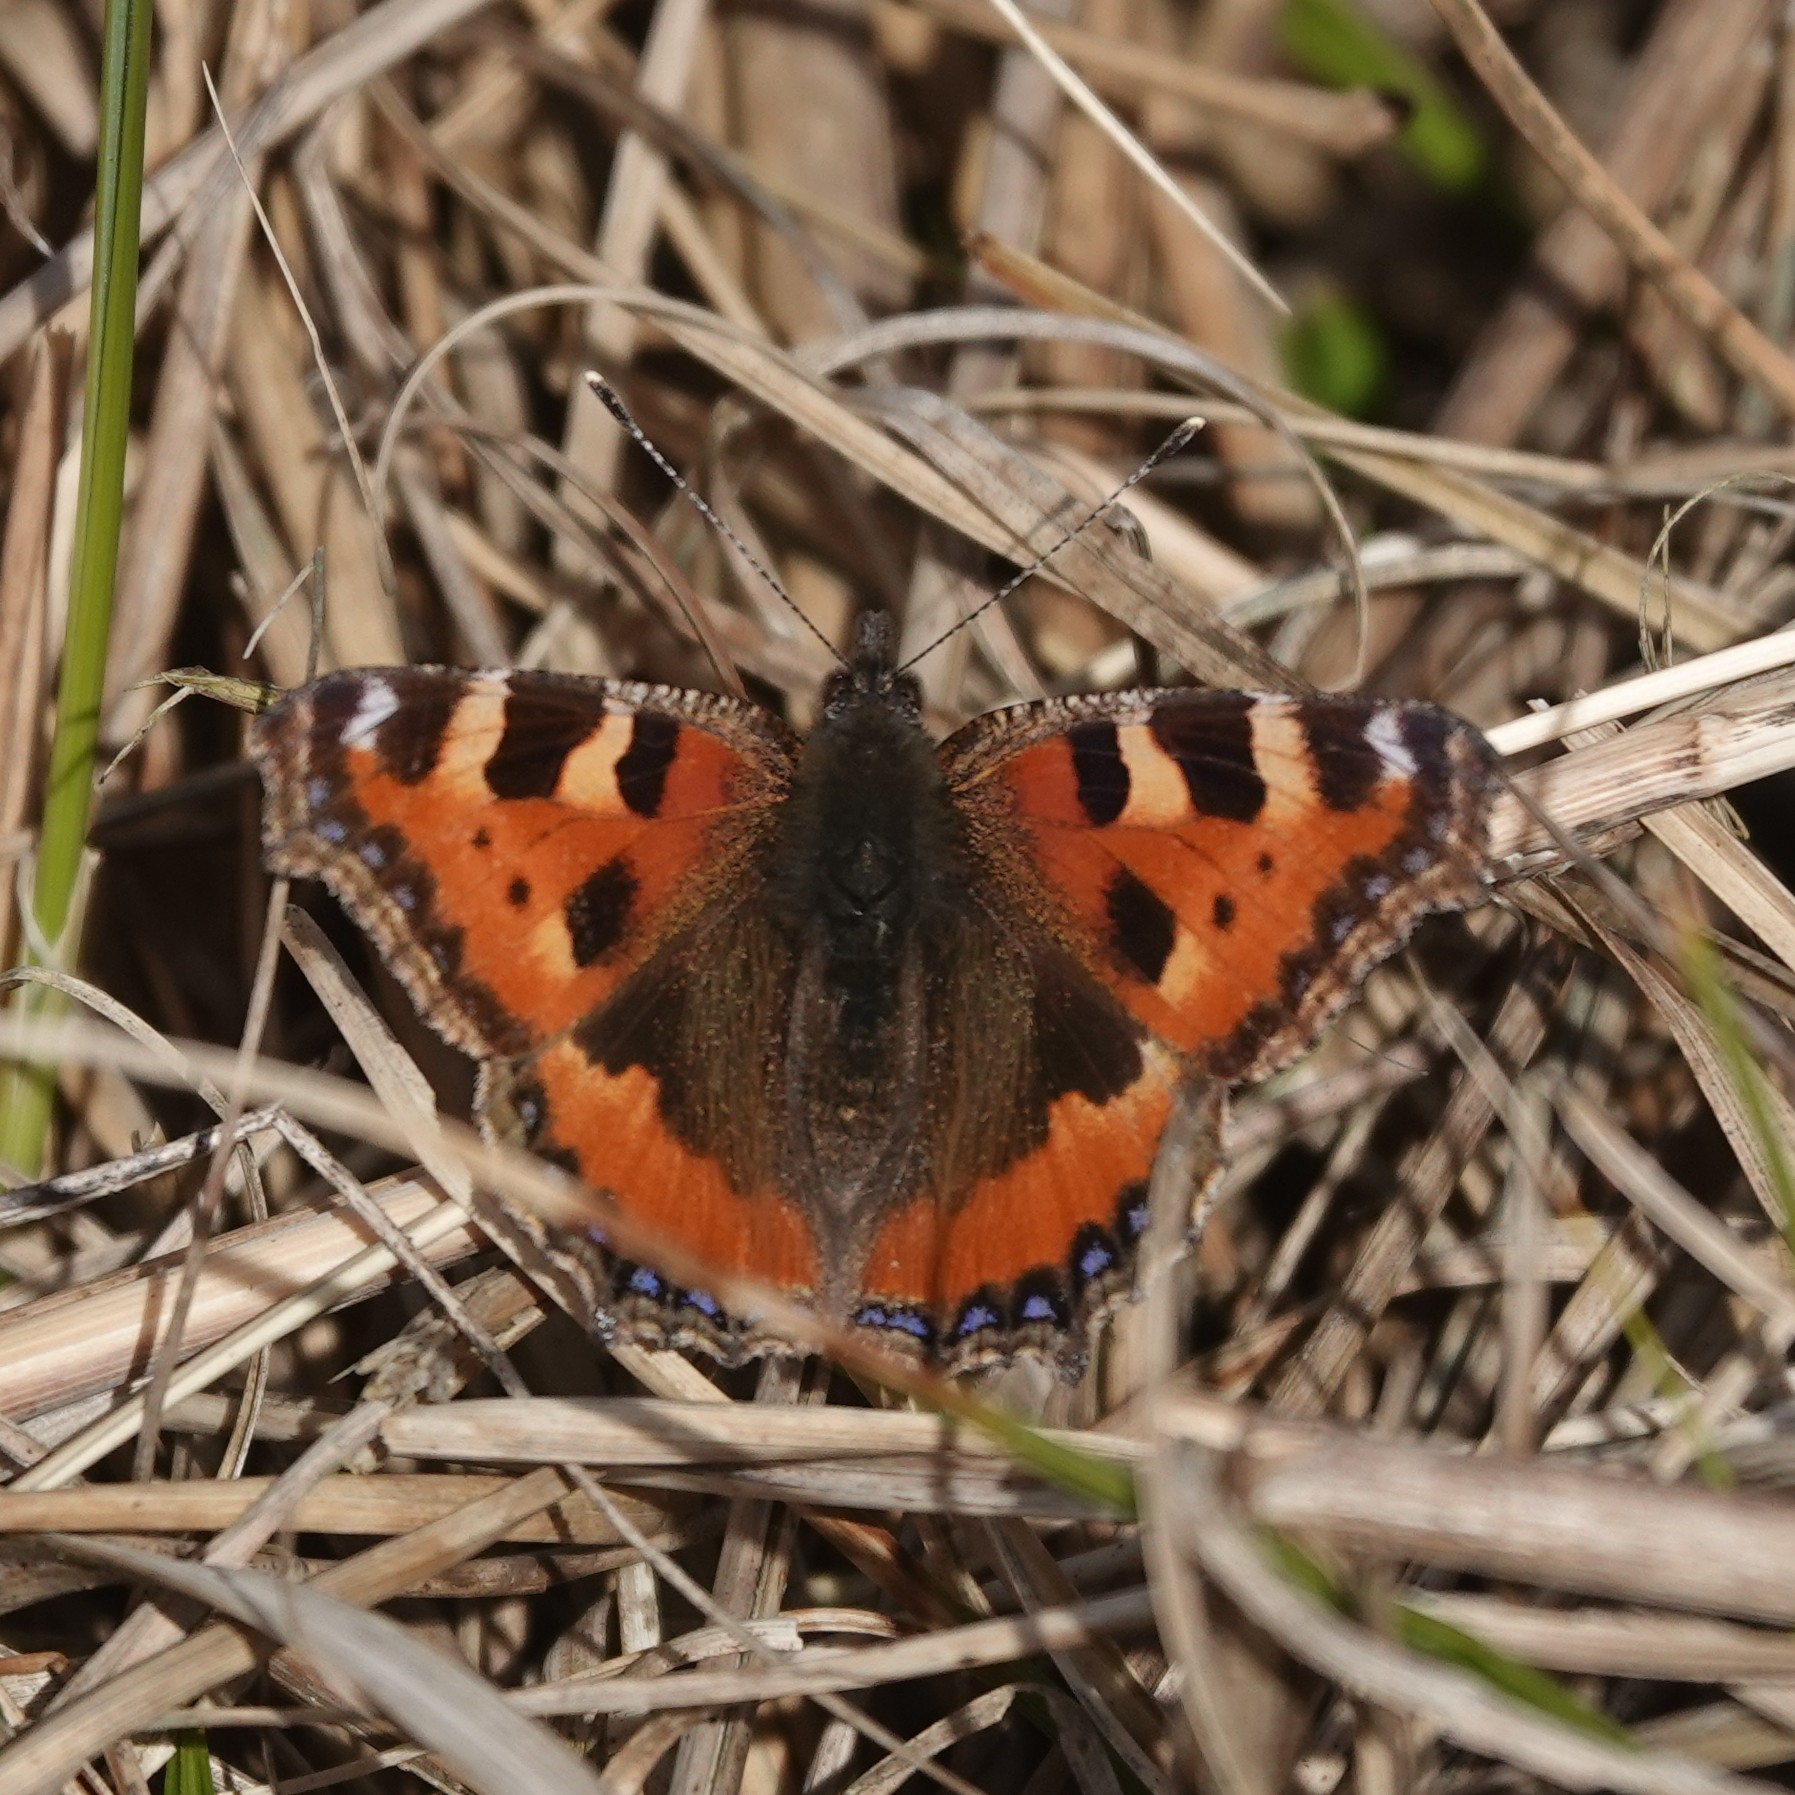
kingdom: Animalia
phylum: Arthropoda
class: Insecta
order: Lepidoptera
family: Nymphalidae
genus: Aglais
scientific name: Aglais urticae
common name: Small tortoiseshell
